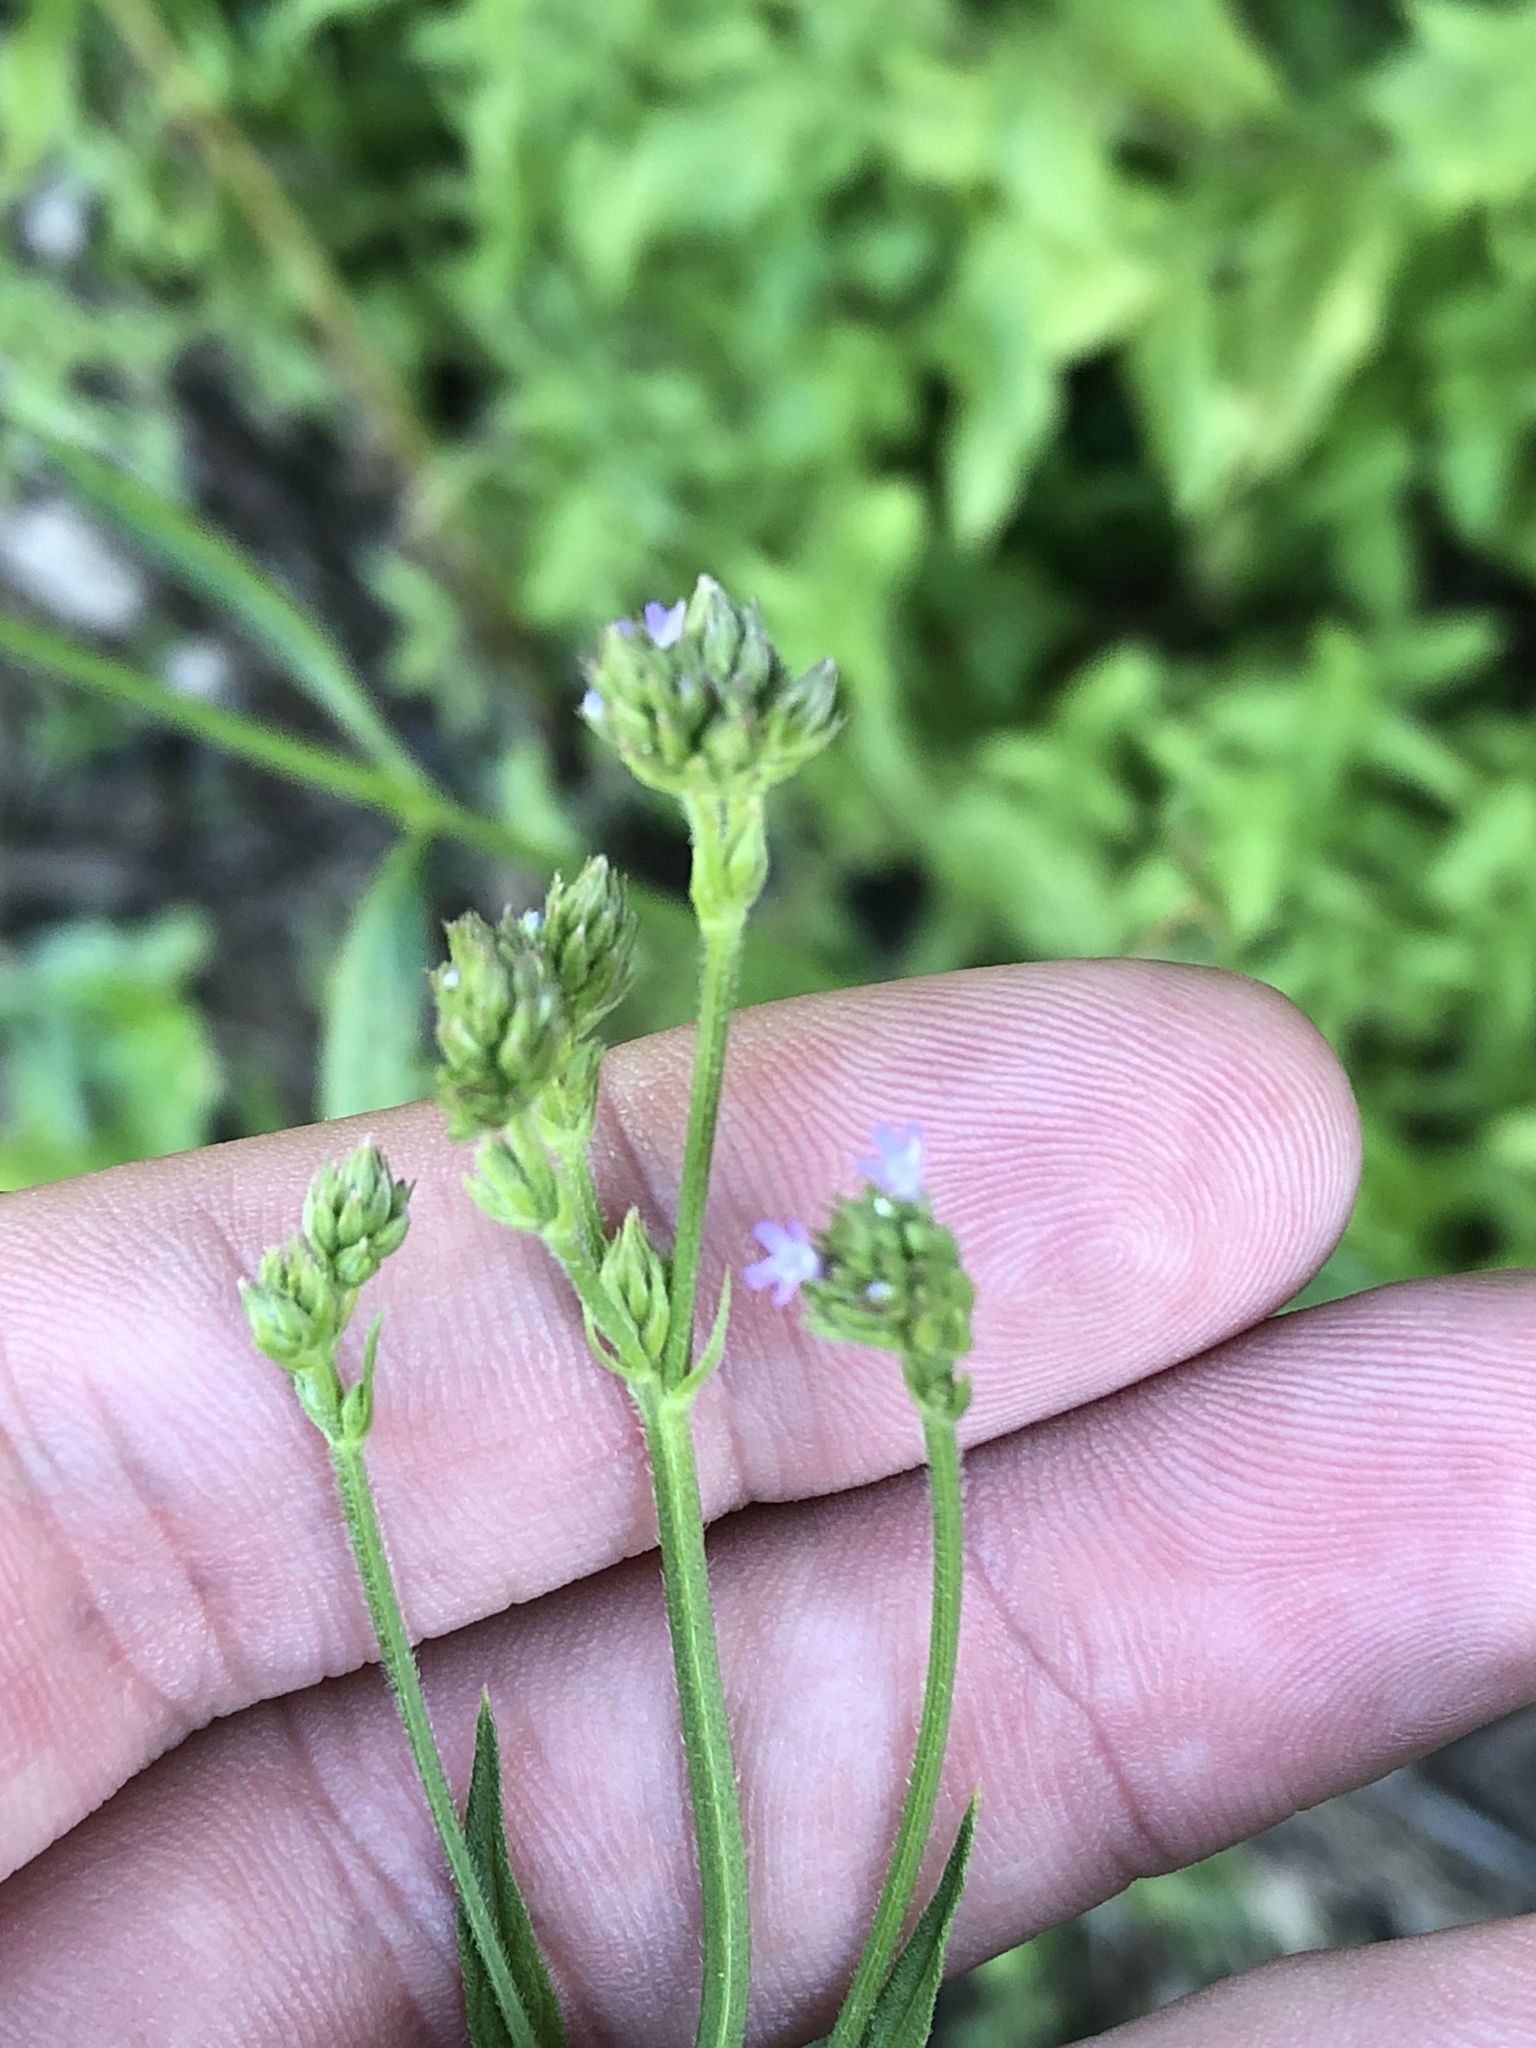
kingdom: Plantae
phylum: Tracheophyta
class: Magnoliopsida
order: Lamiales
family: Verbenaceae
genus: Verbena
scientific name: Verbena brasiliensis
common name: Brazilian vervain
